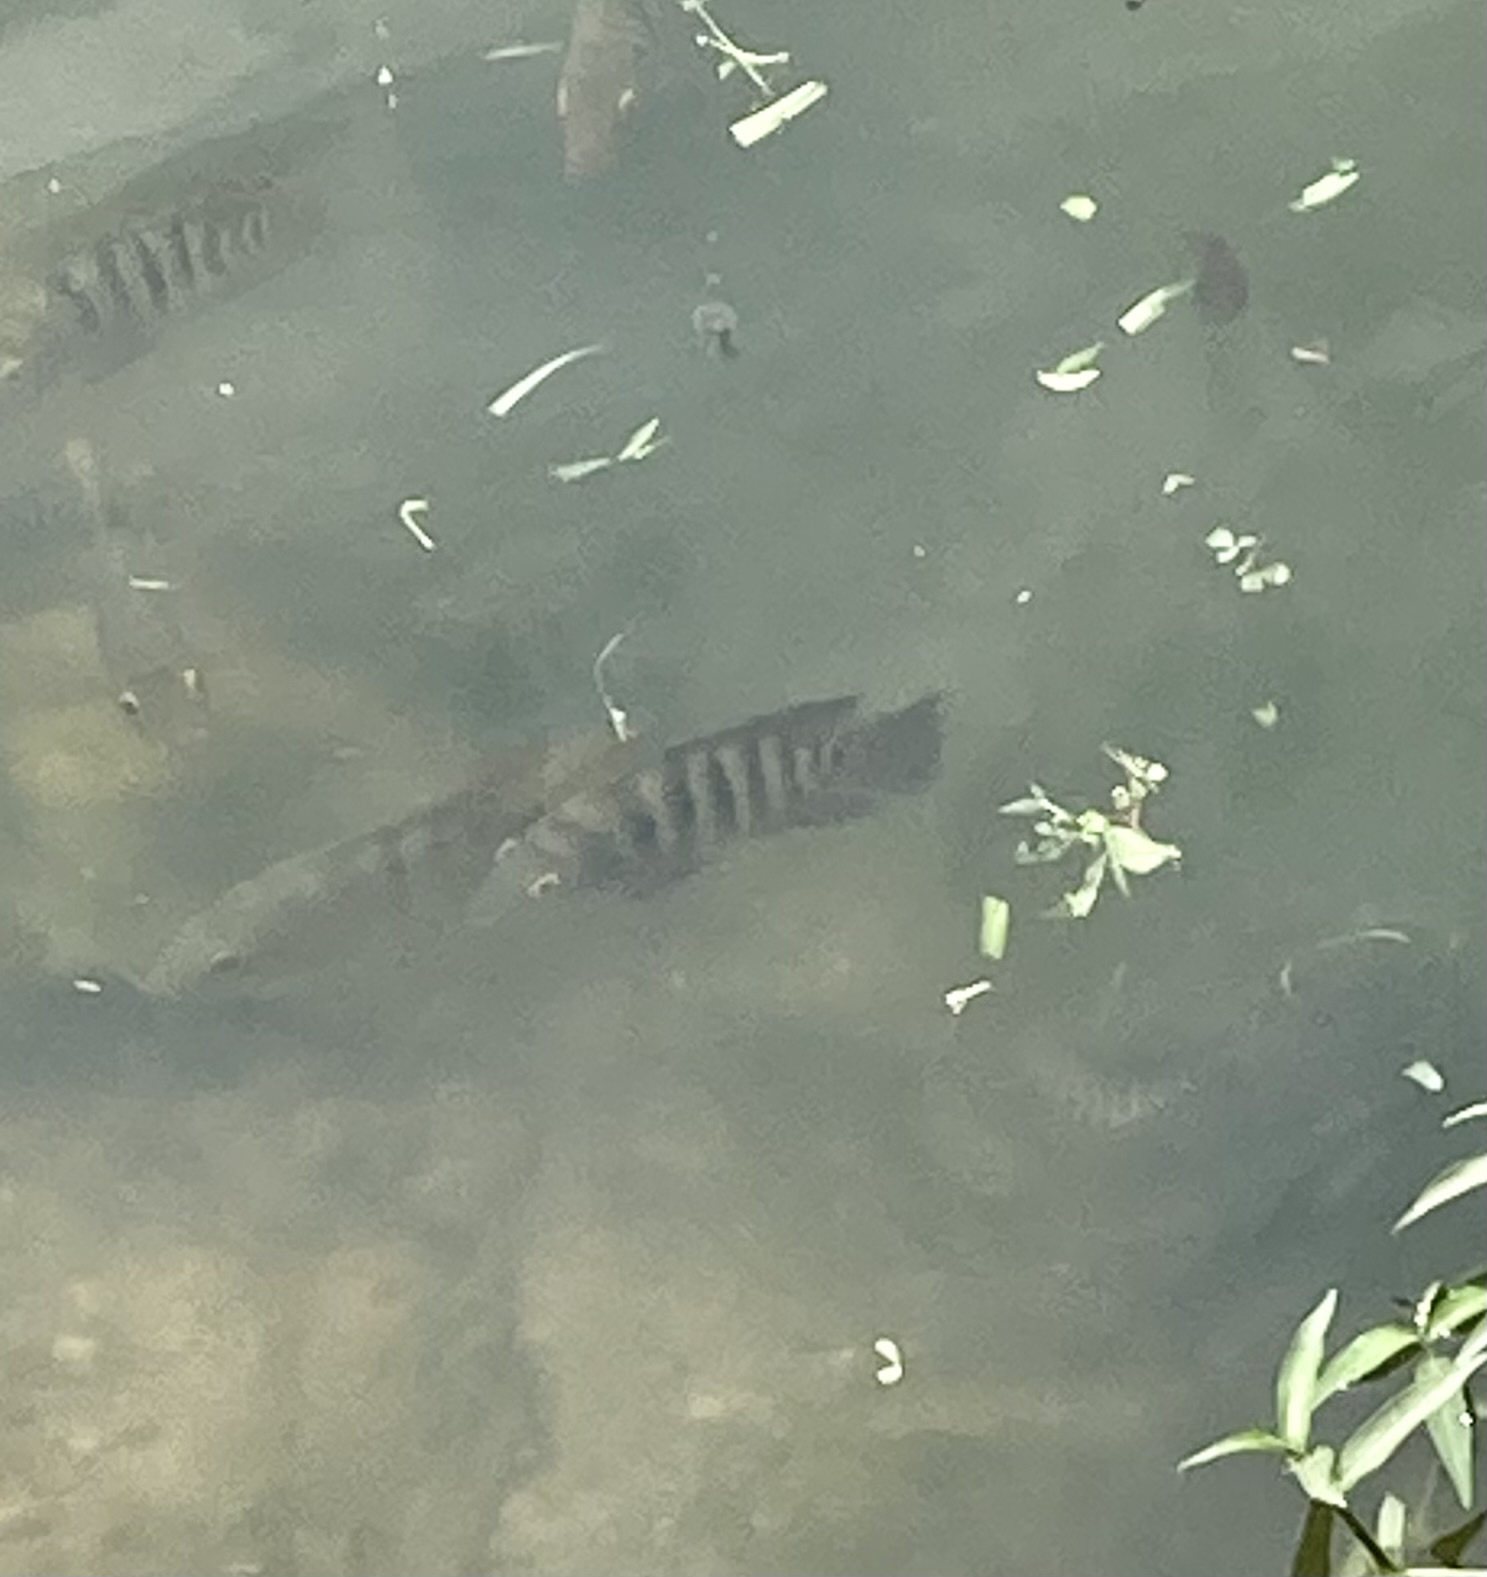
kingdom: Animalia
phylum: Chordata
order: Perciformes
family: Cichlidae
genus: Mayaheros
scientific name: Mayaheros urophthalmus
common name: Mayan cichlid
